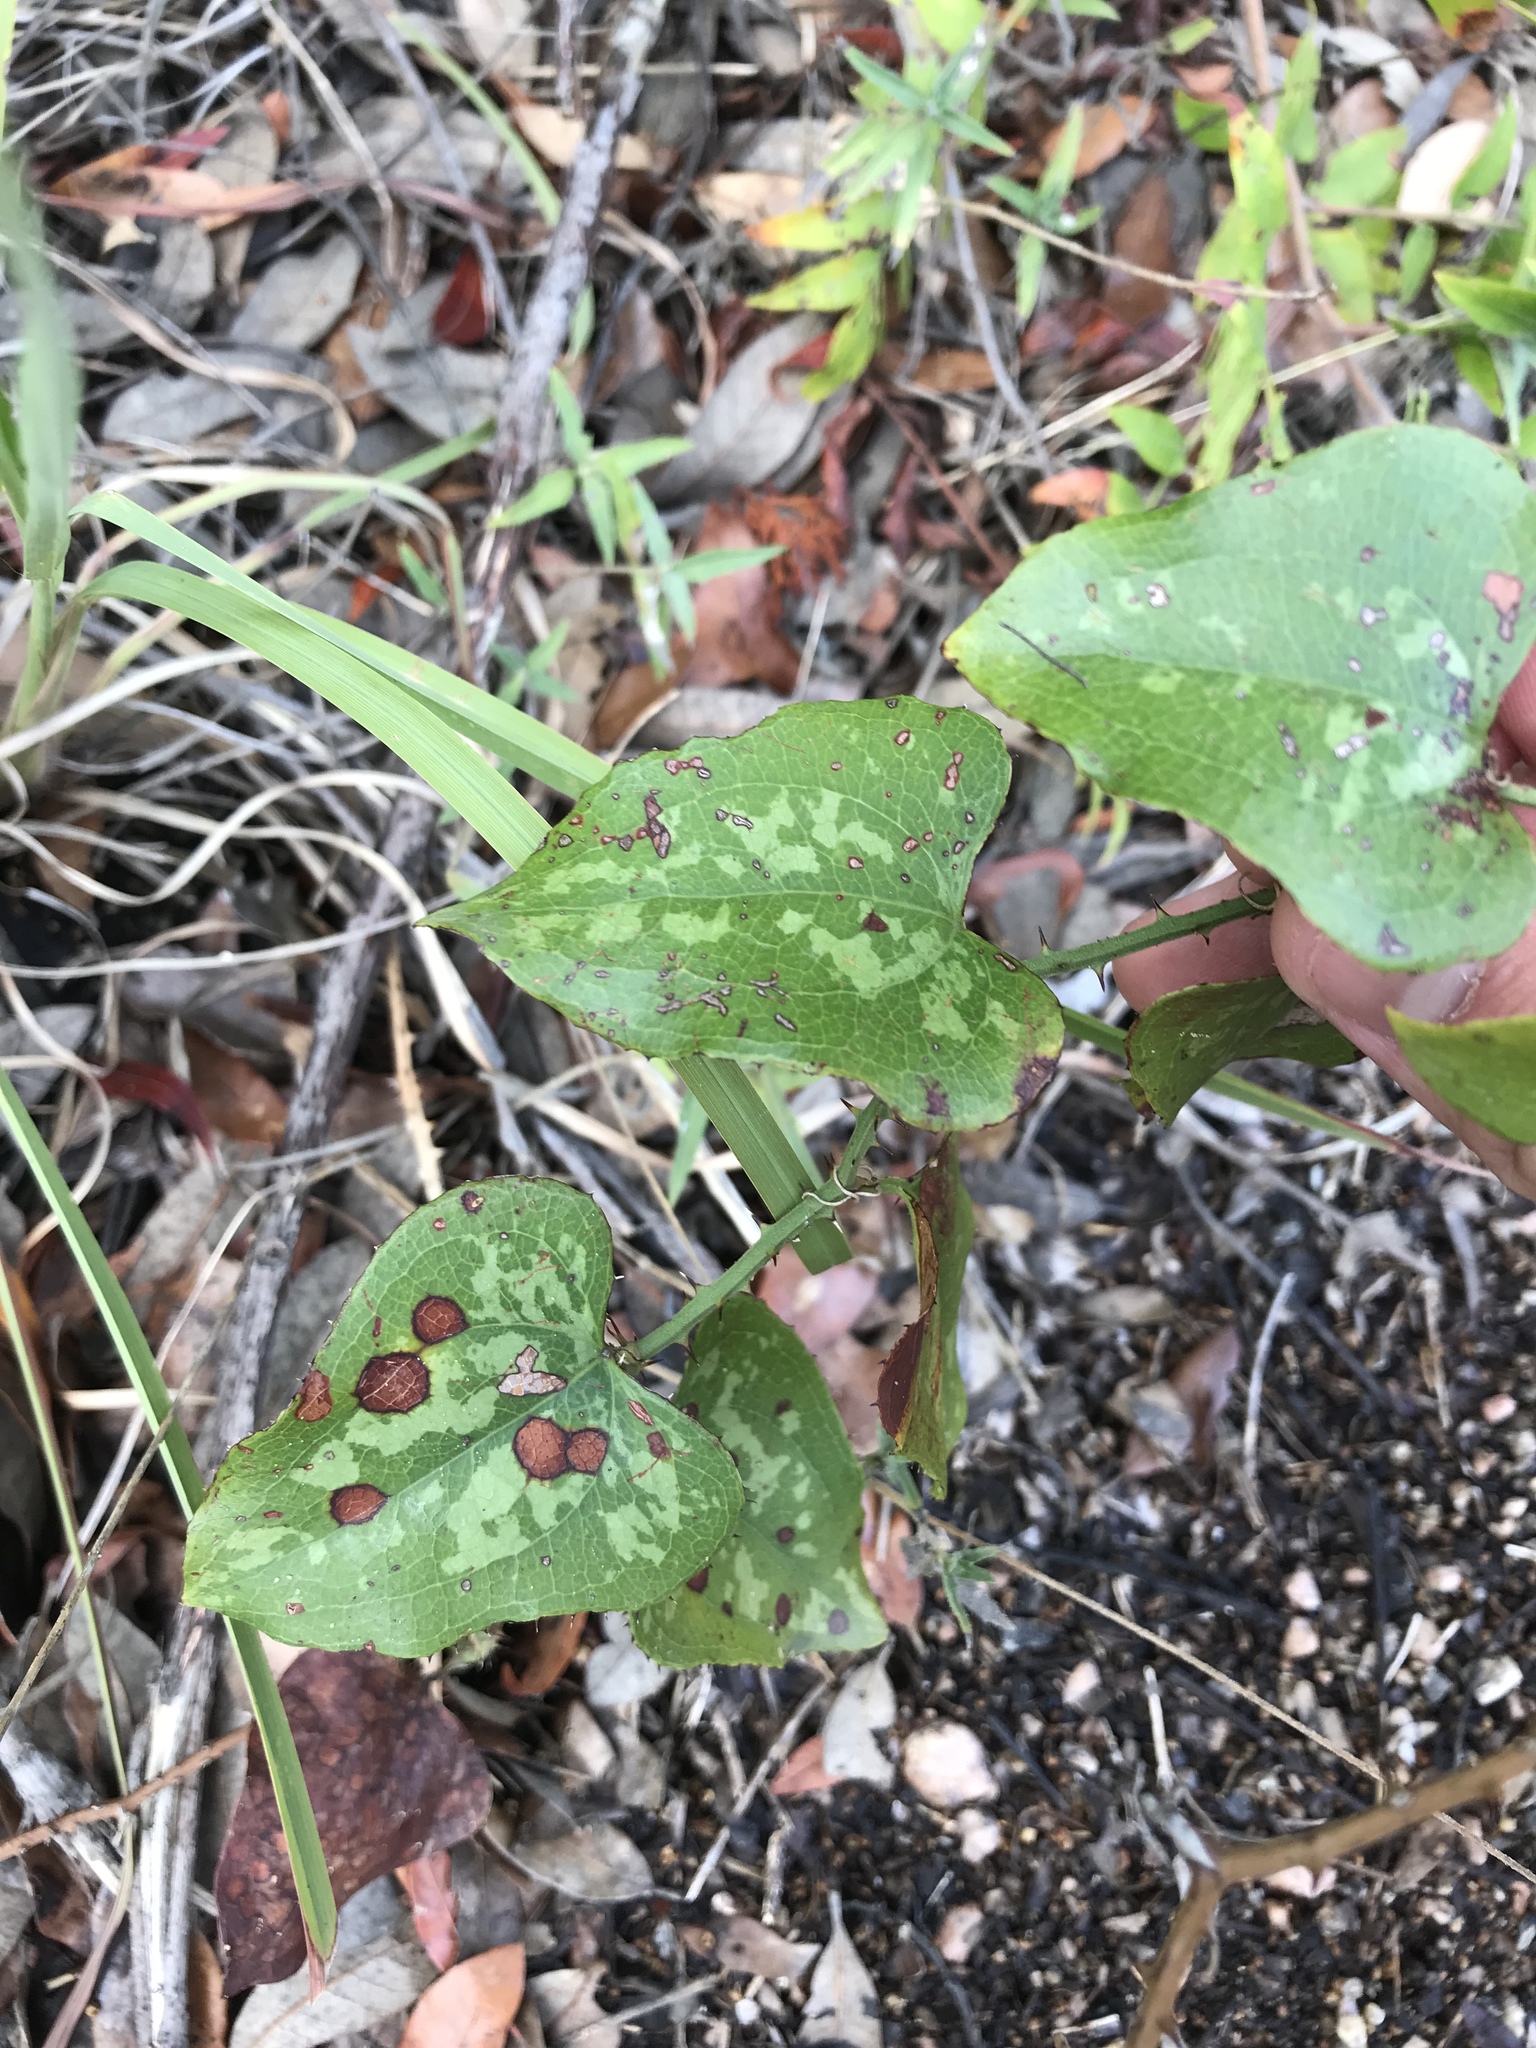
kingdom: Plantae
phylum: Tracheophyta
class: Liliopsida
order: Liliales
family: Smilacaceae
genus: Smilax
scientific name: Smilax bona-nox
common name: Catbrier
